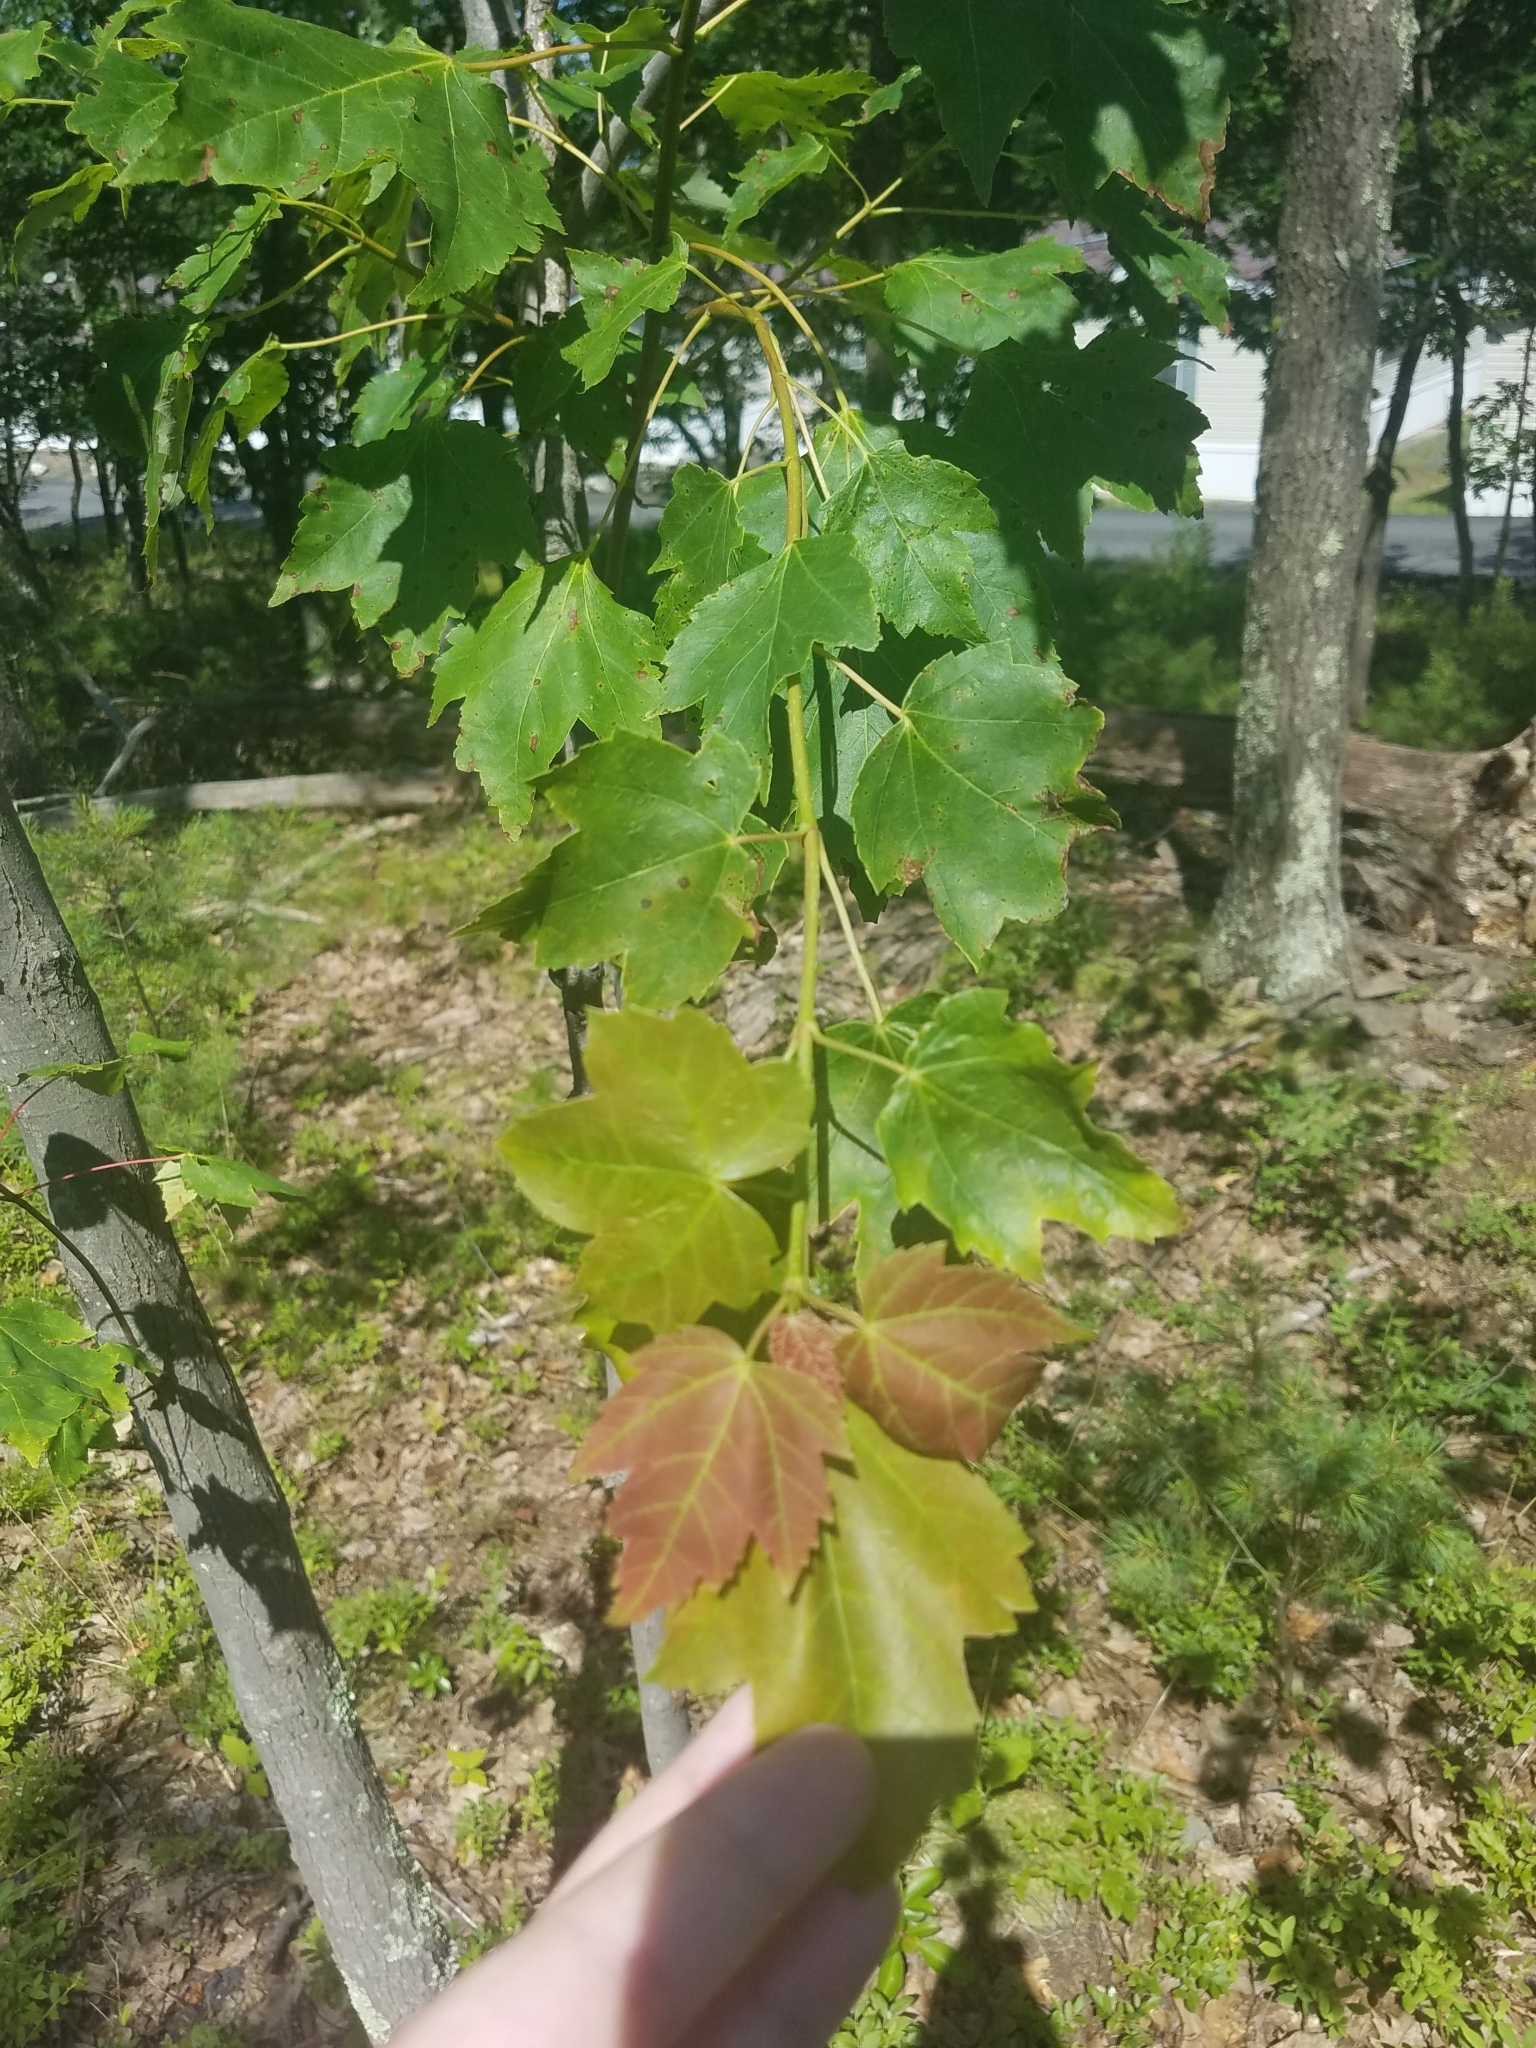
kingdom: Plantae
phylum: Tracheophyta
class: Magnoliopsida
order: Sapindales
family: Sapindaceae
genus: Acer
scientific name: Acer rubrum
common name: Red maple
